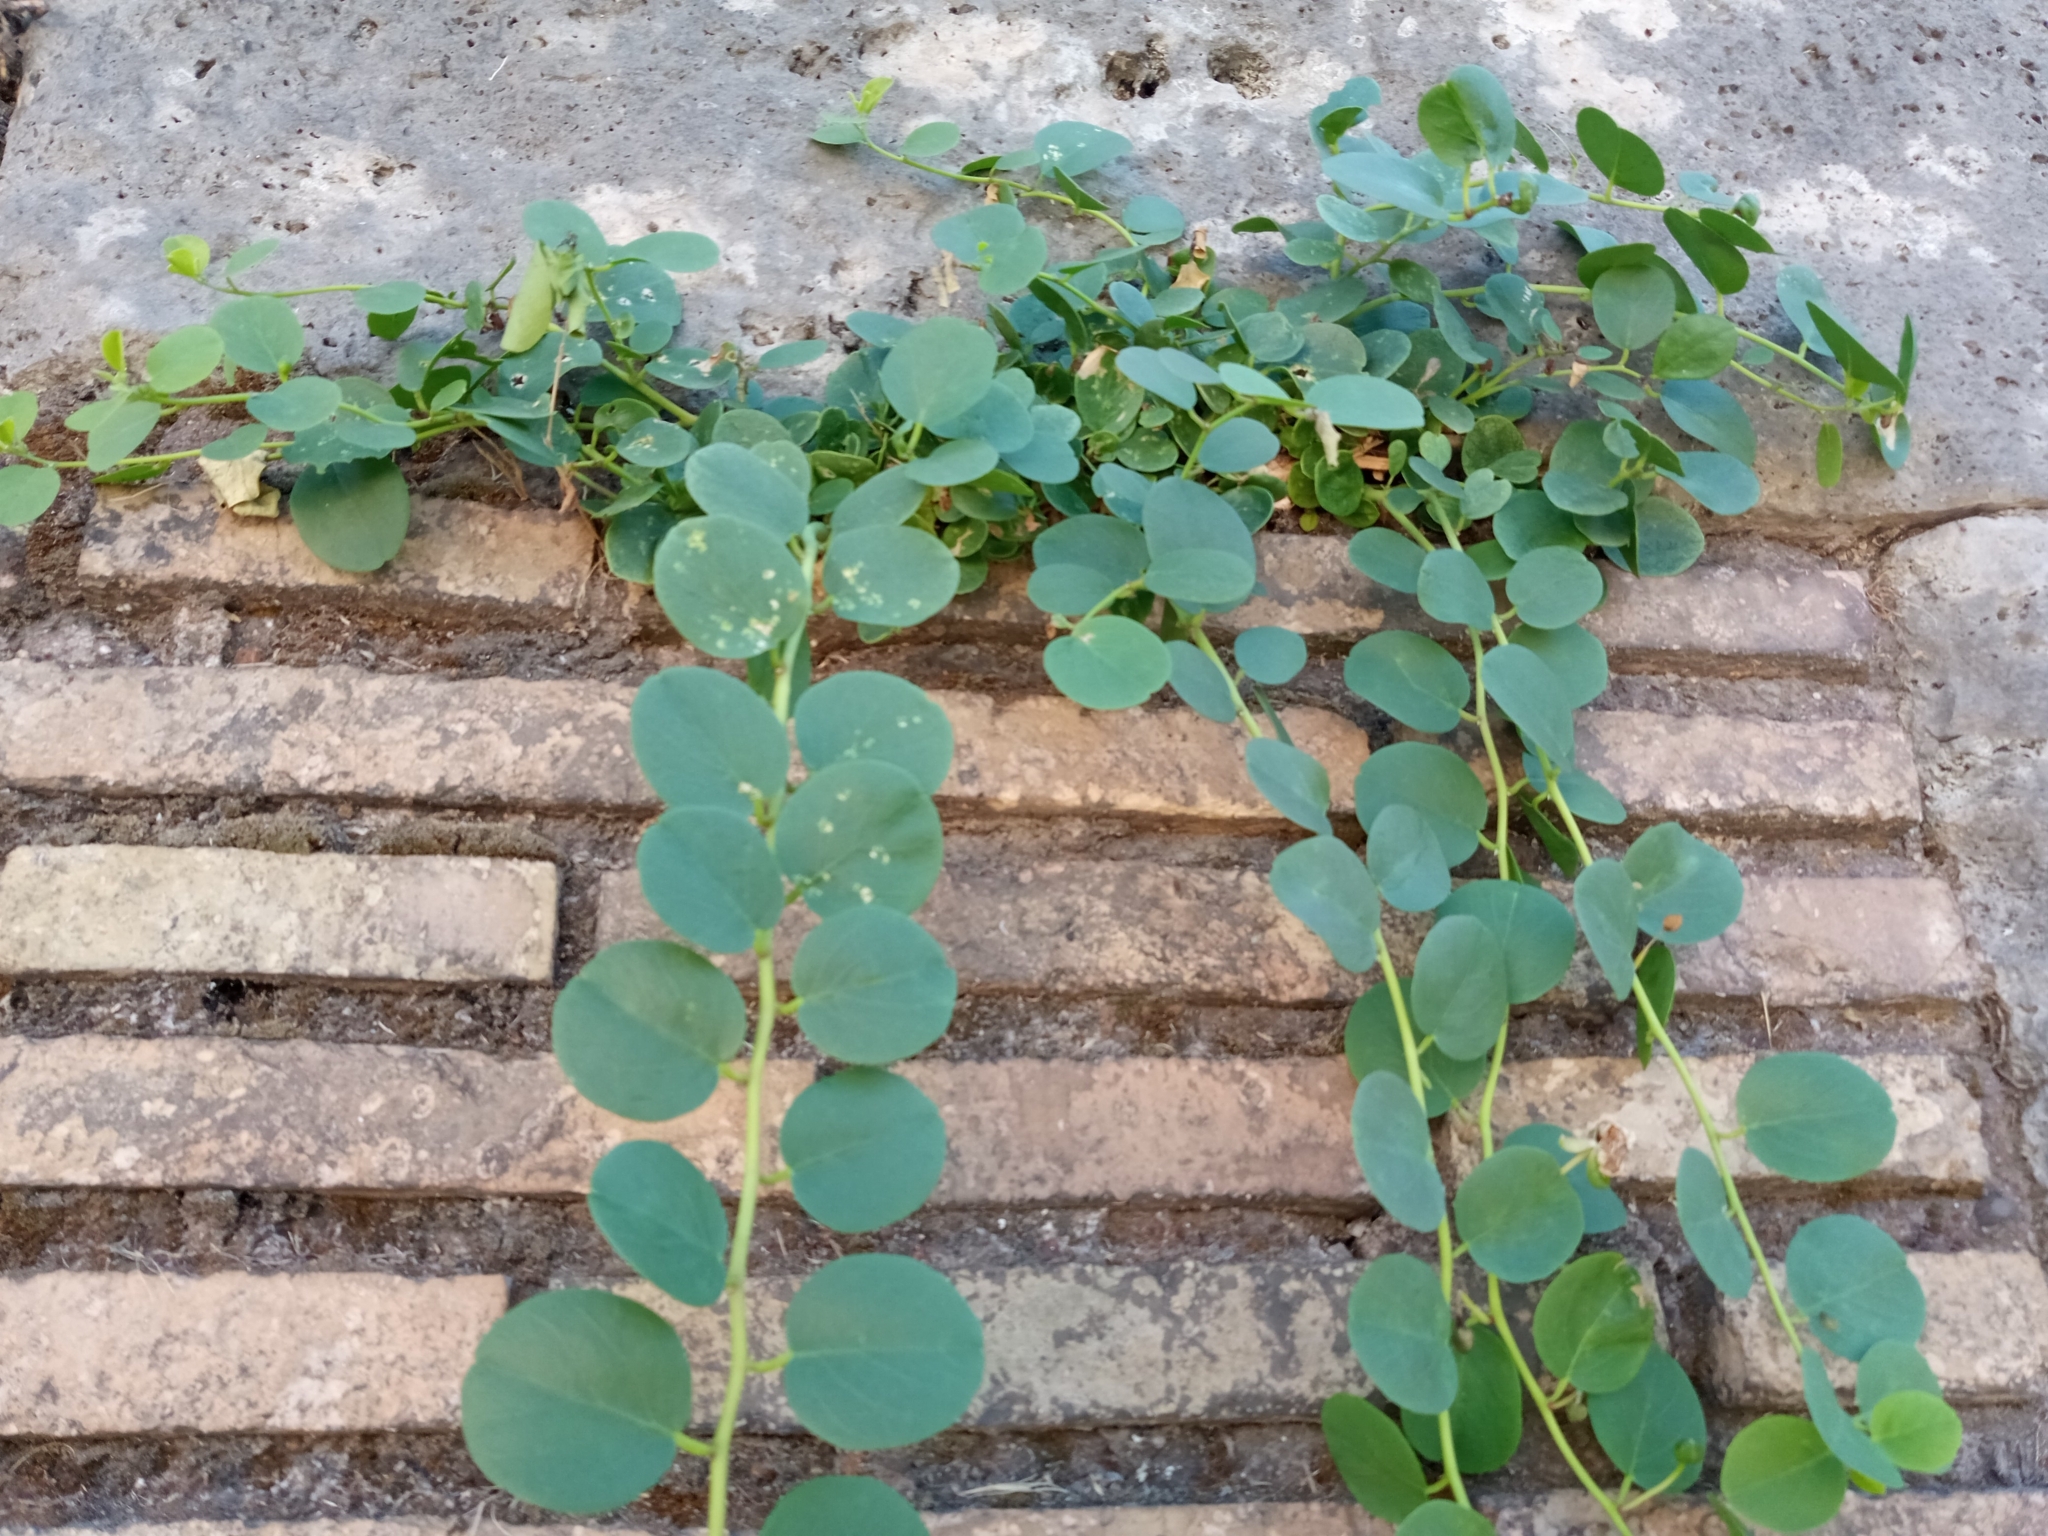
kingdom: Plantae
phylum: Tracheophyta
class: Magnoliopsida
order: Brassicales
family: Capparaceae
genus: Capparis
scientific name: Capparis orientalis
